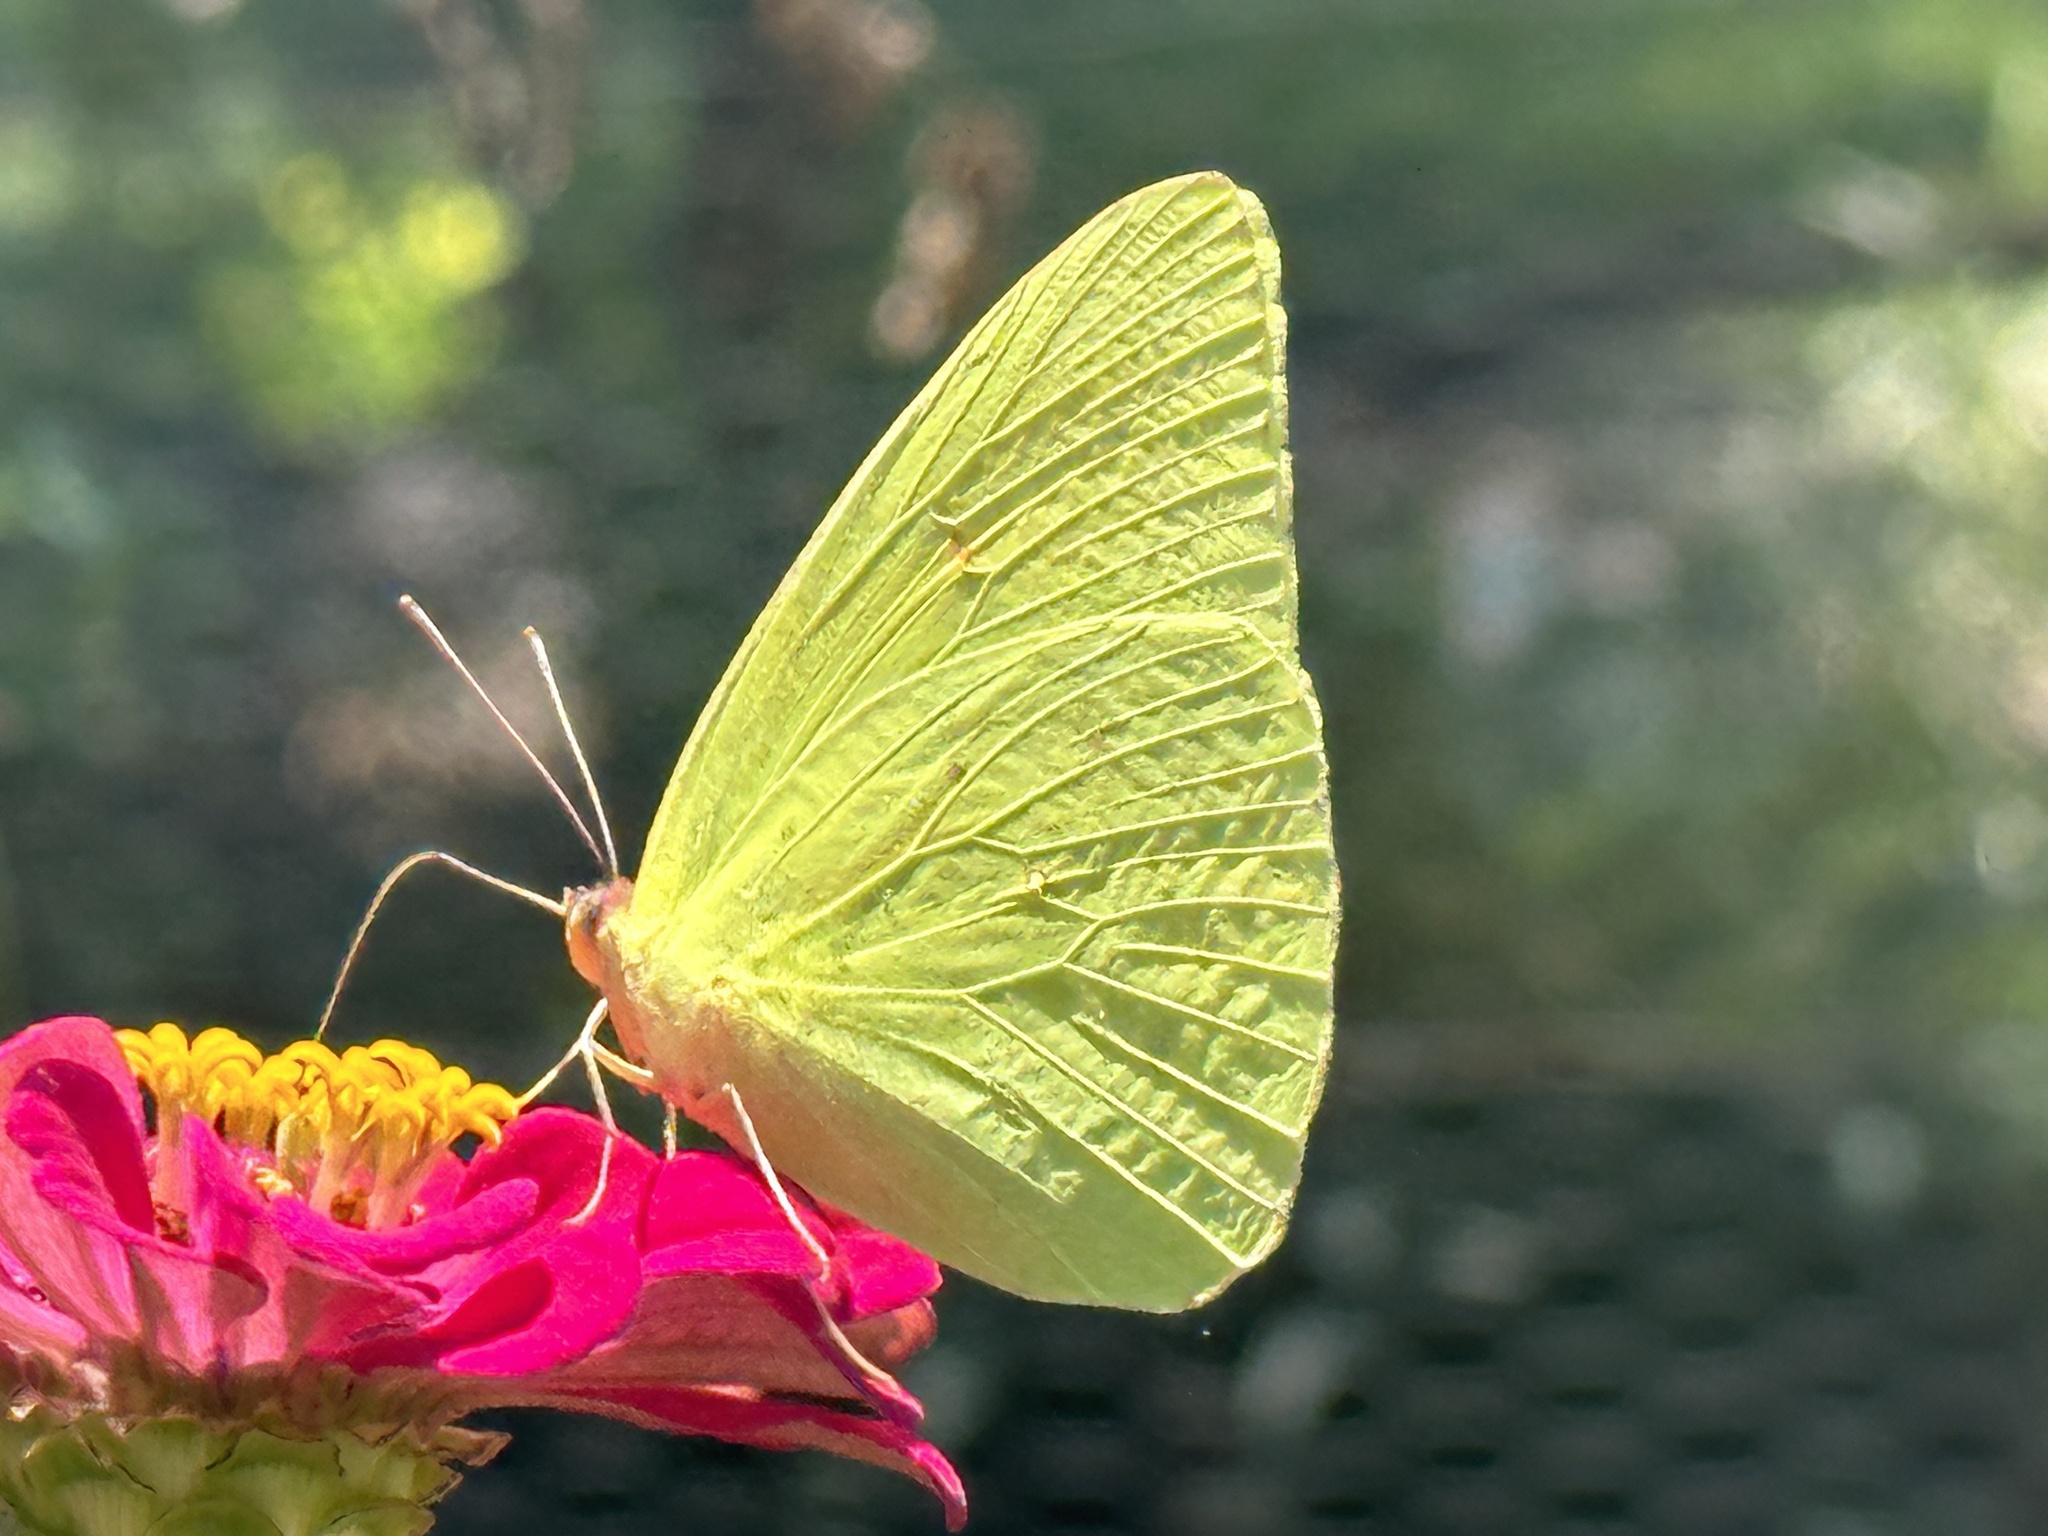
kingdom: Animalia
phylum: Arthropoda
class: Insecta
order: Lepidoptera
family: Pieridae
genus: Phoebis
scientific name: Phoebis sennae
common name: Cloudless sulphur
